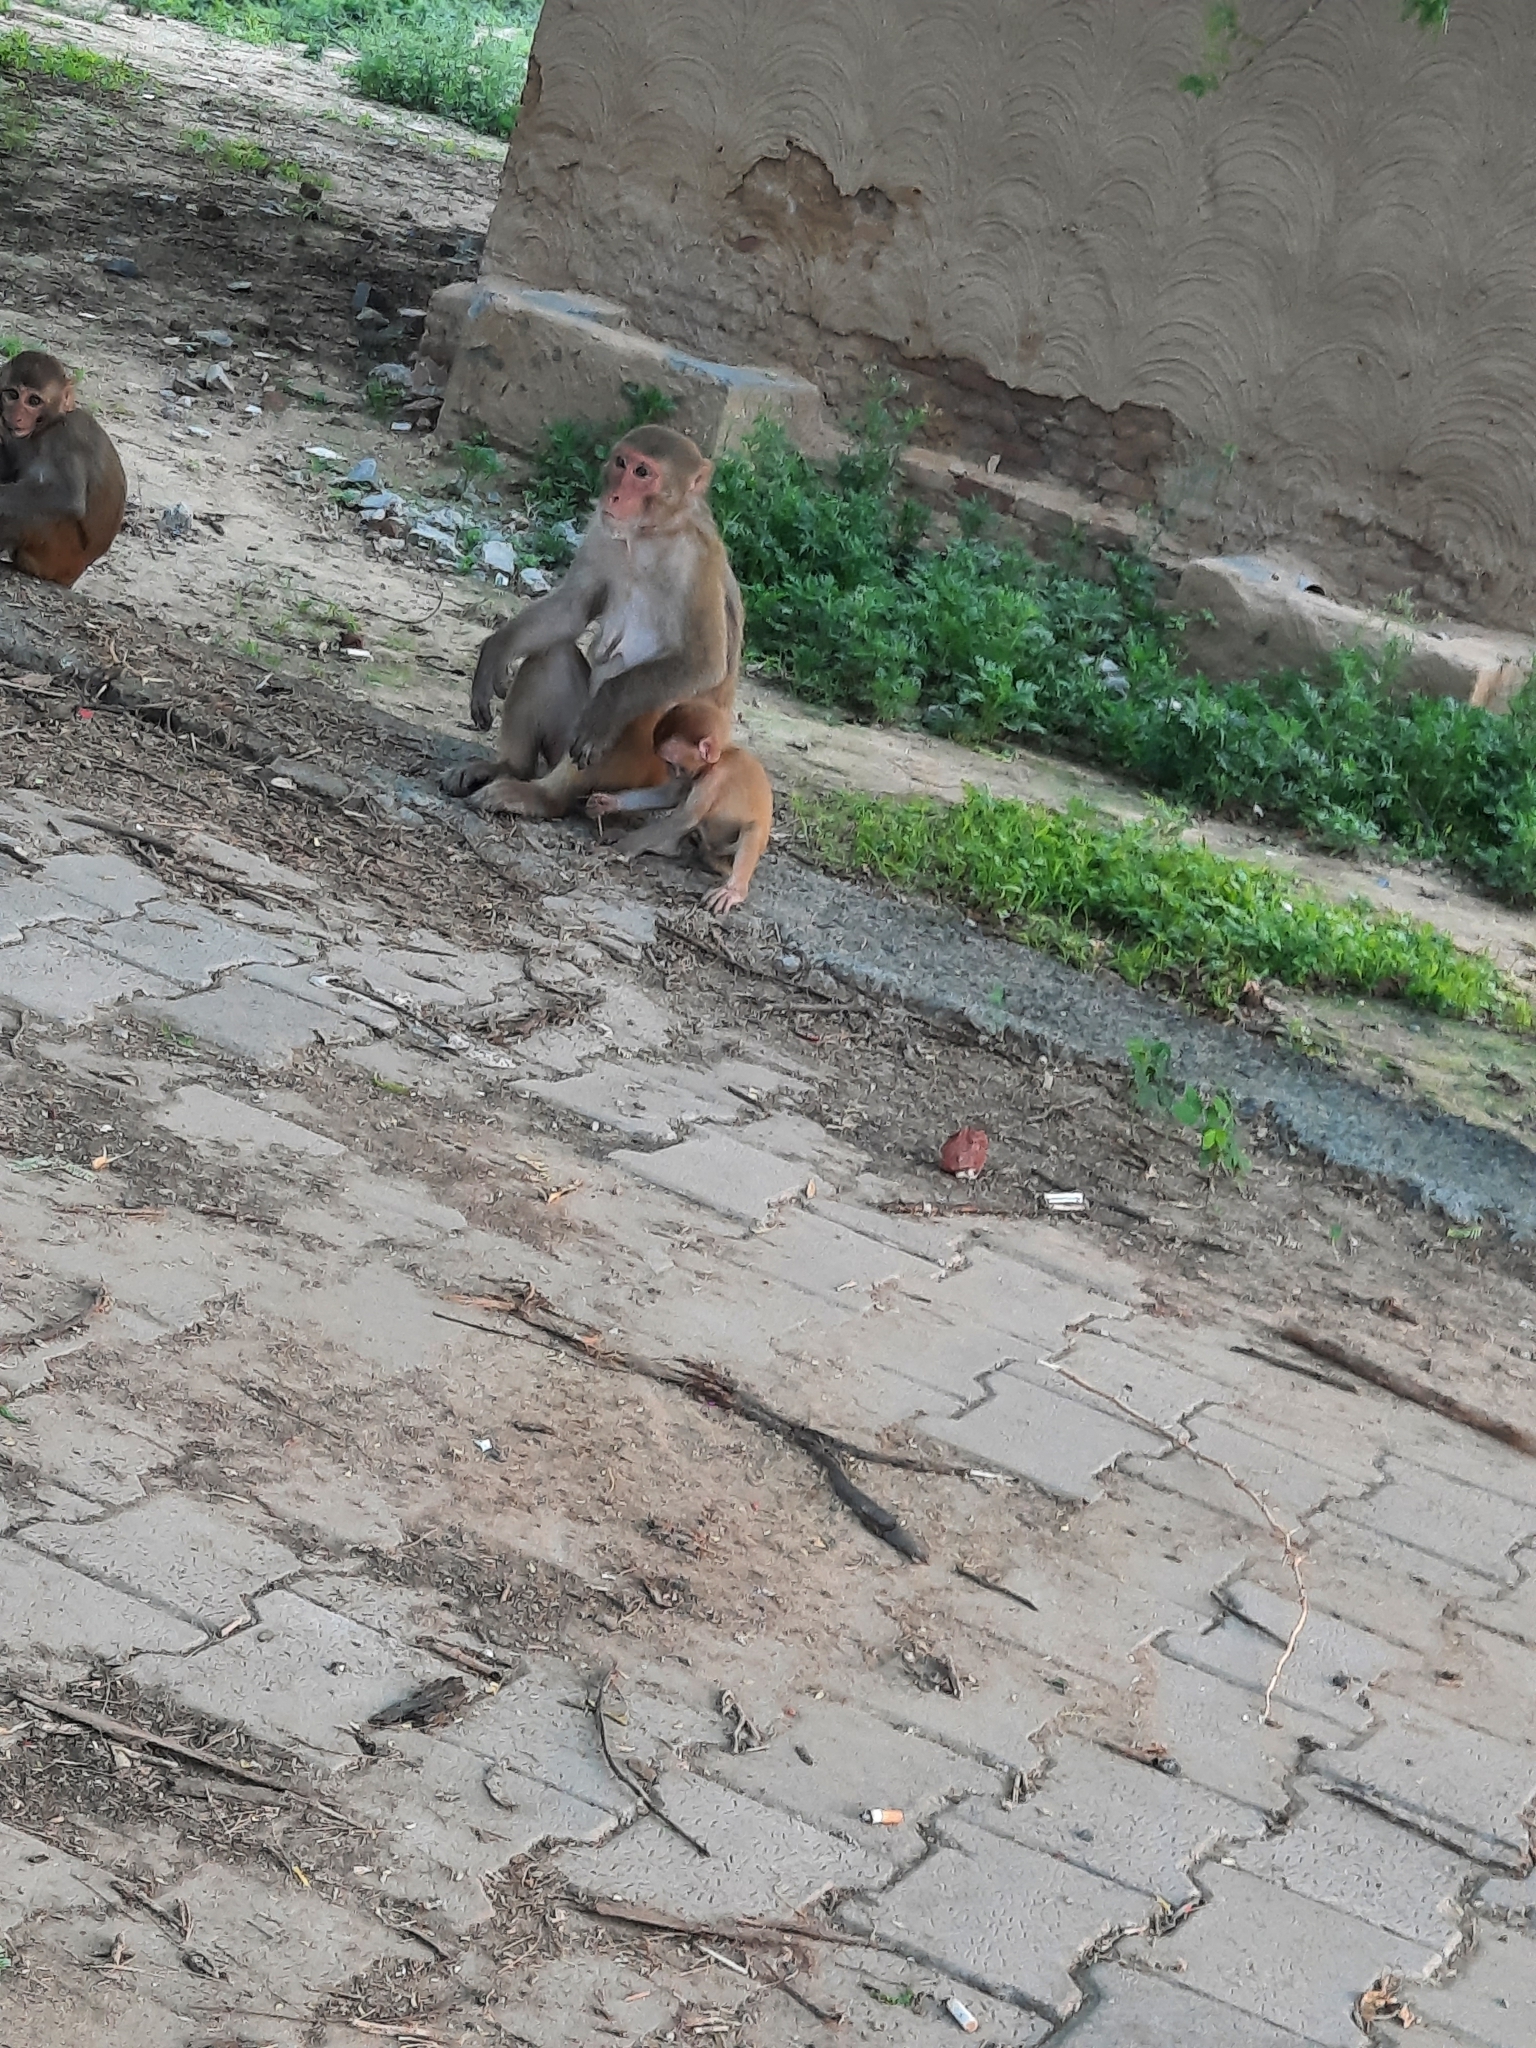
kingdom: Animalia
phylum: Chordata
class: Mammalia
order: Primates
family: Cercopithecidae
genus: Macaca
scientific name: Macaca mulatta
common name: Rhesus monkey
